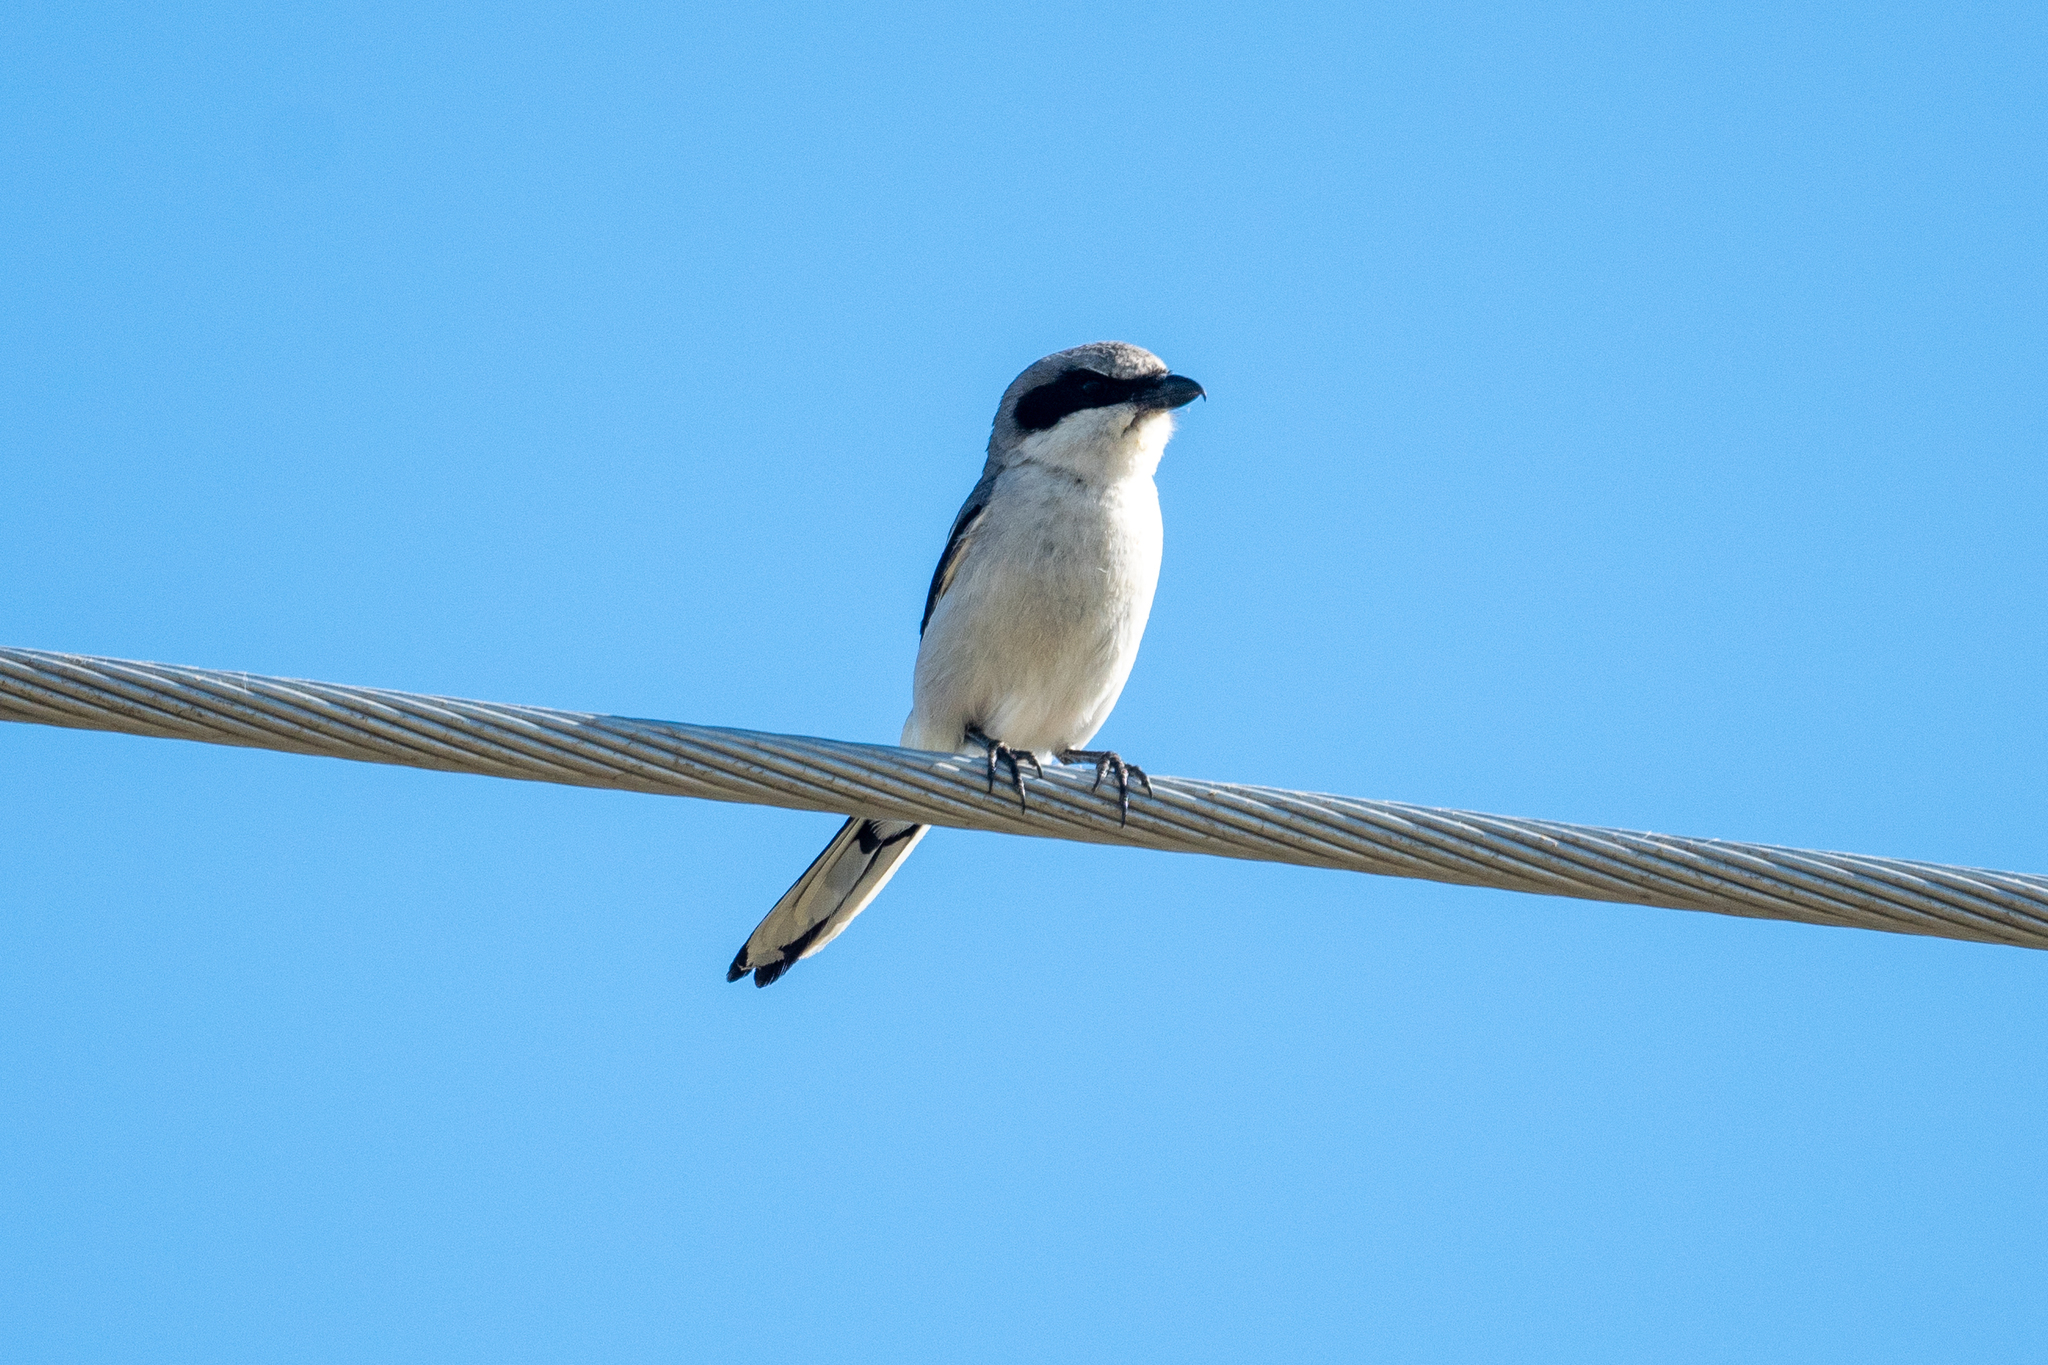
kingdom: Animalia
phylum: Chordata
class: Aves
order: Passeriformes
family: Laniidae
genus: Lanius
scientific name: Lanius ludovicianus
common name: Loggerhead shrike
